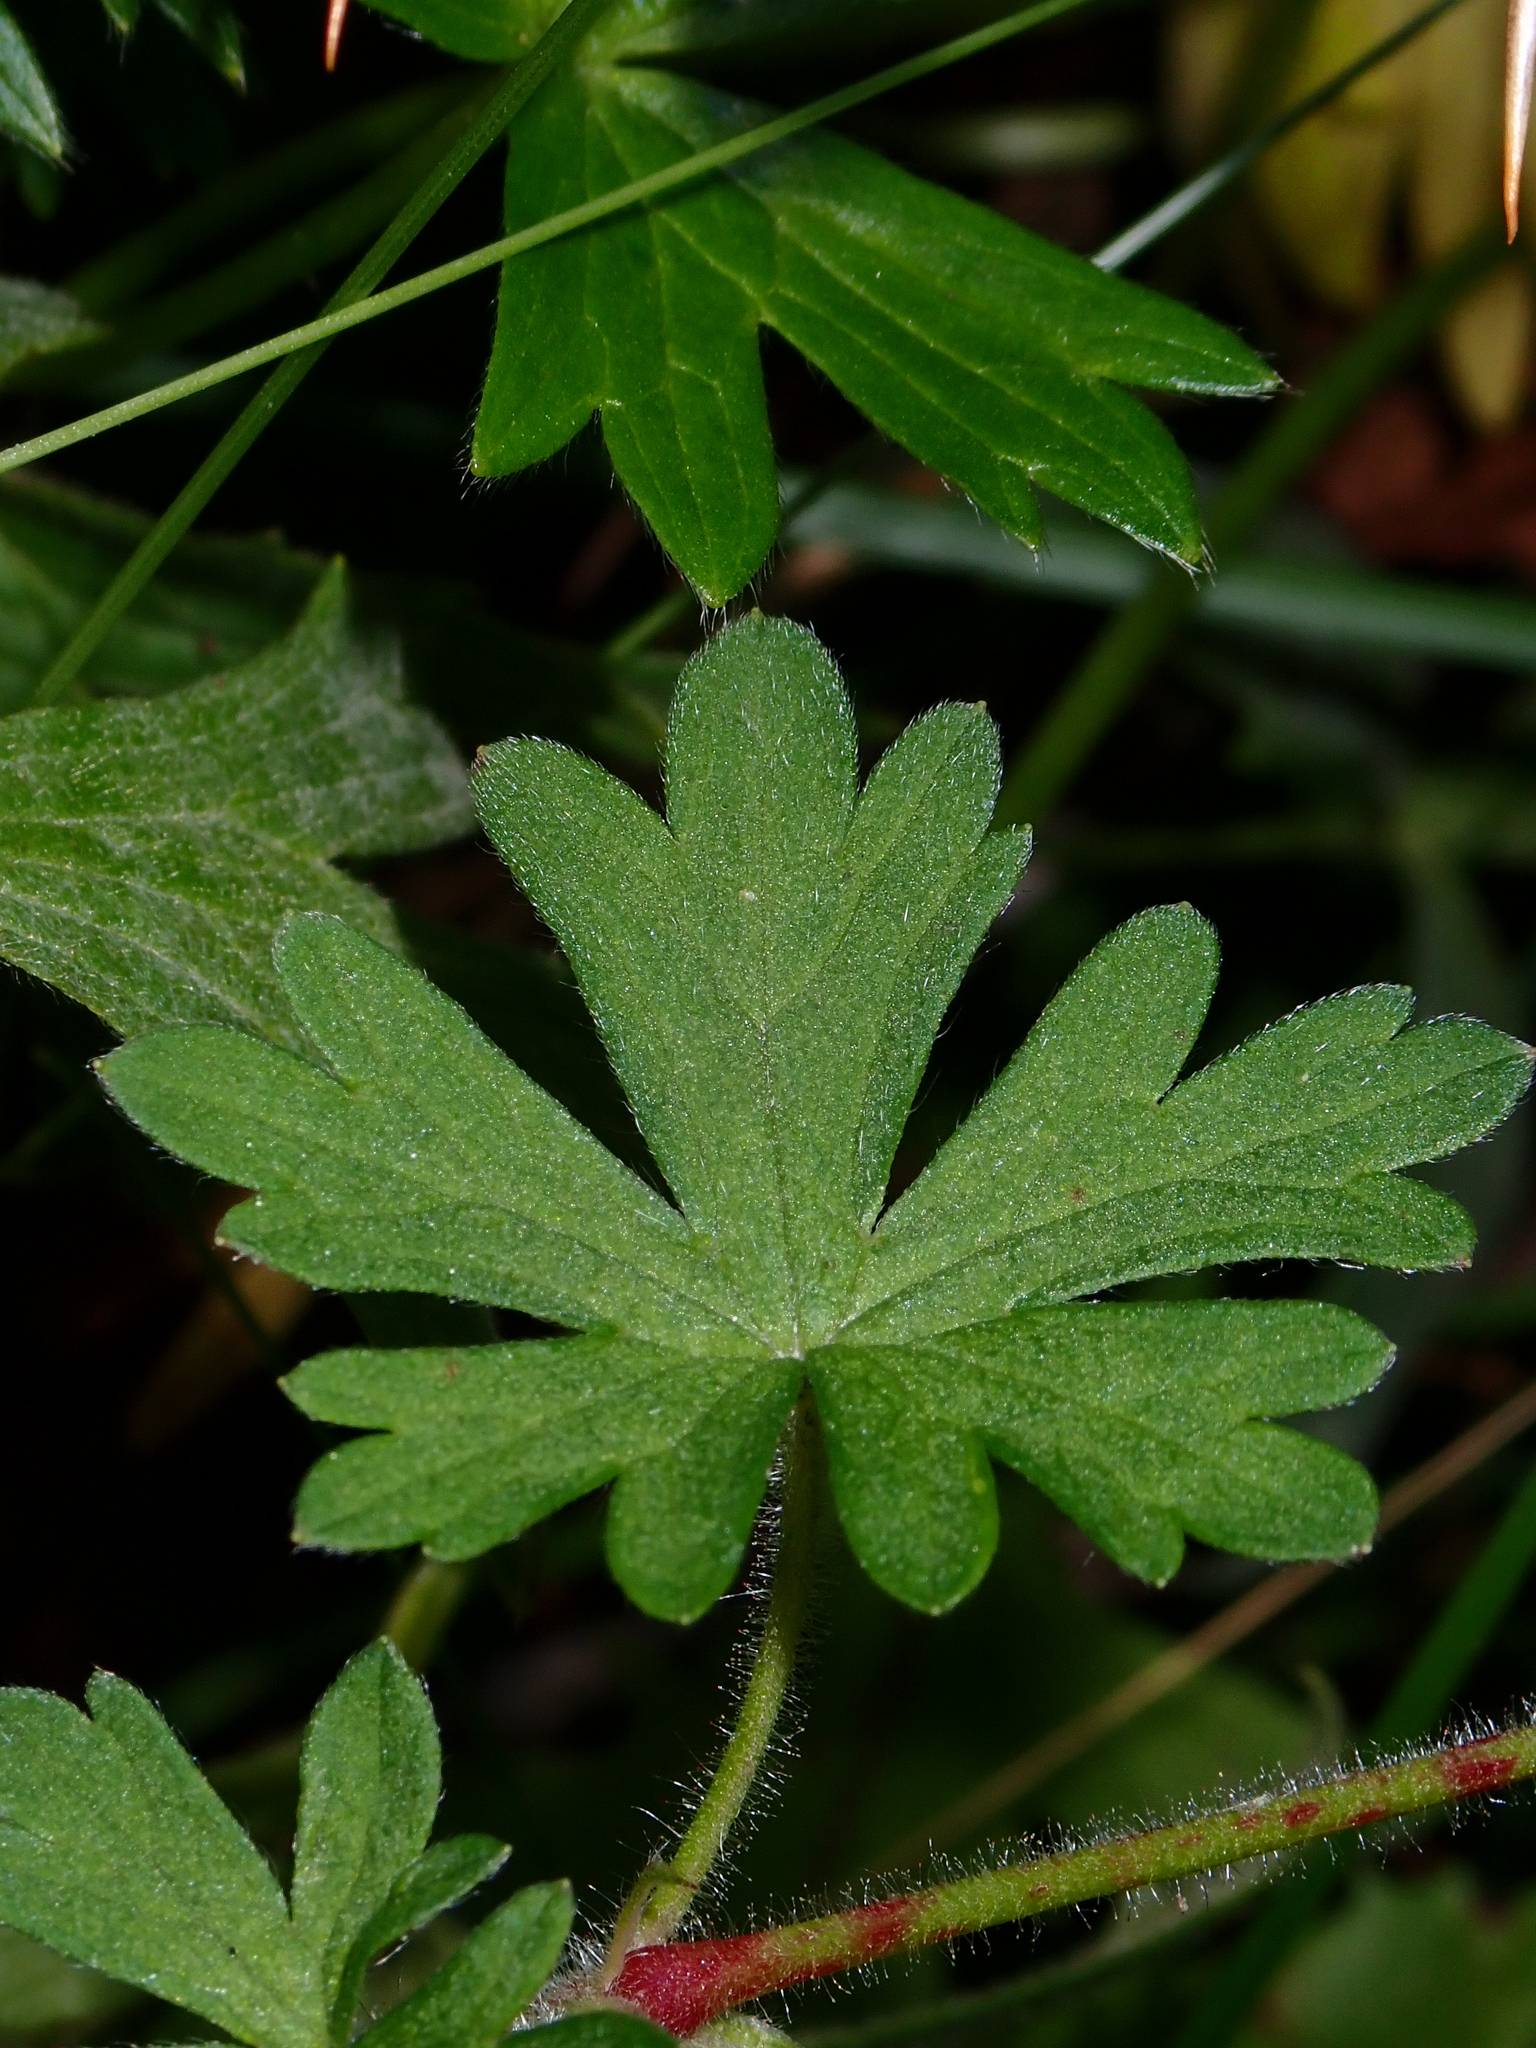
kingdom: Plantae
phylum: Tracheophyta
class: Magnoliopsida
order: Geraniales
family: Geraniaceae
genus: Geranium
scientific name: Geranium sessiliflorum
